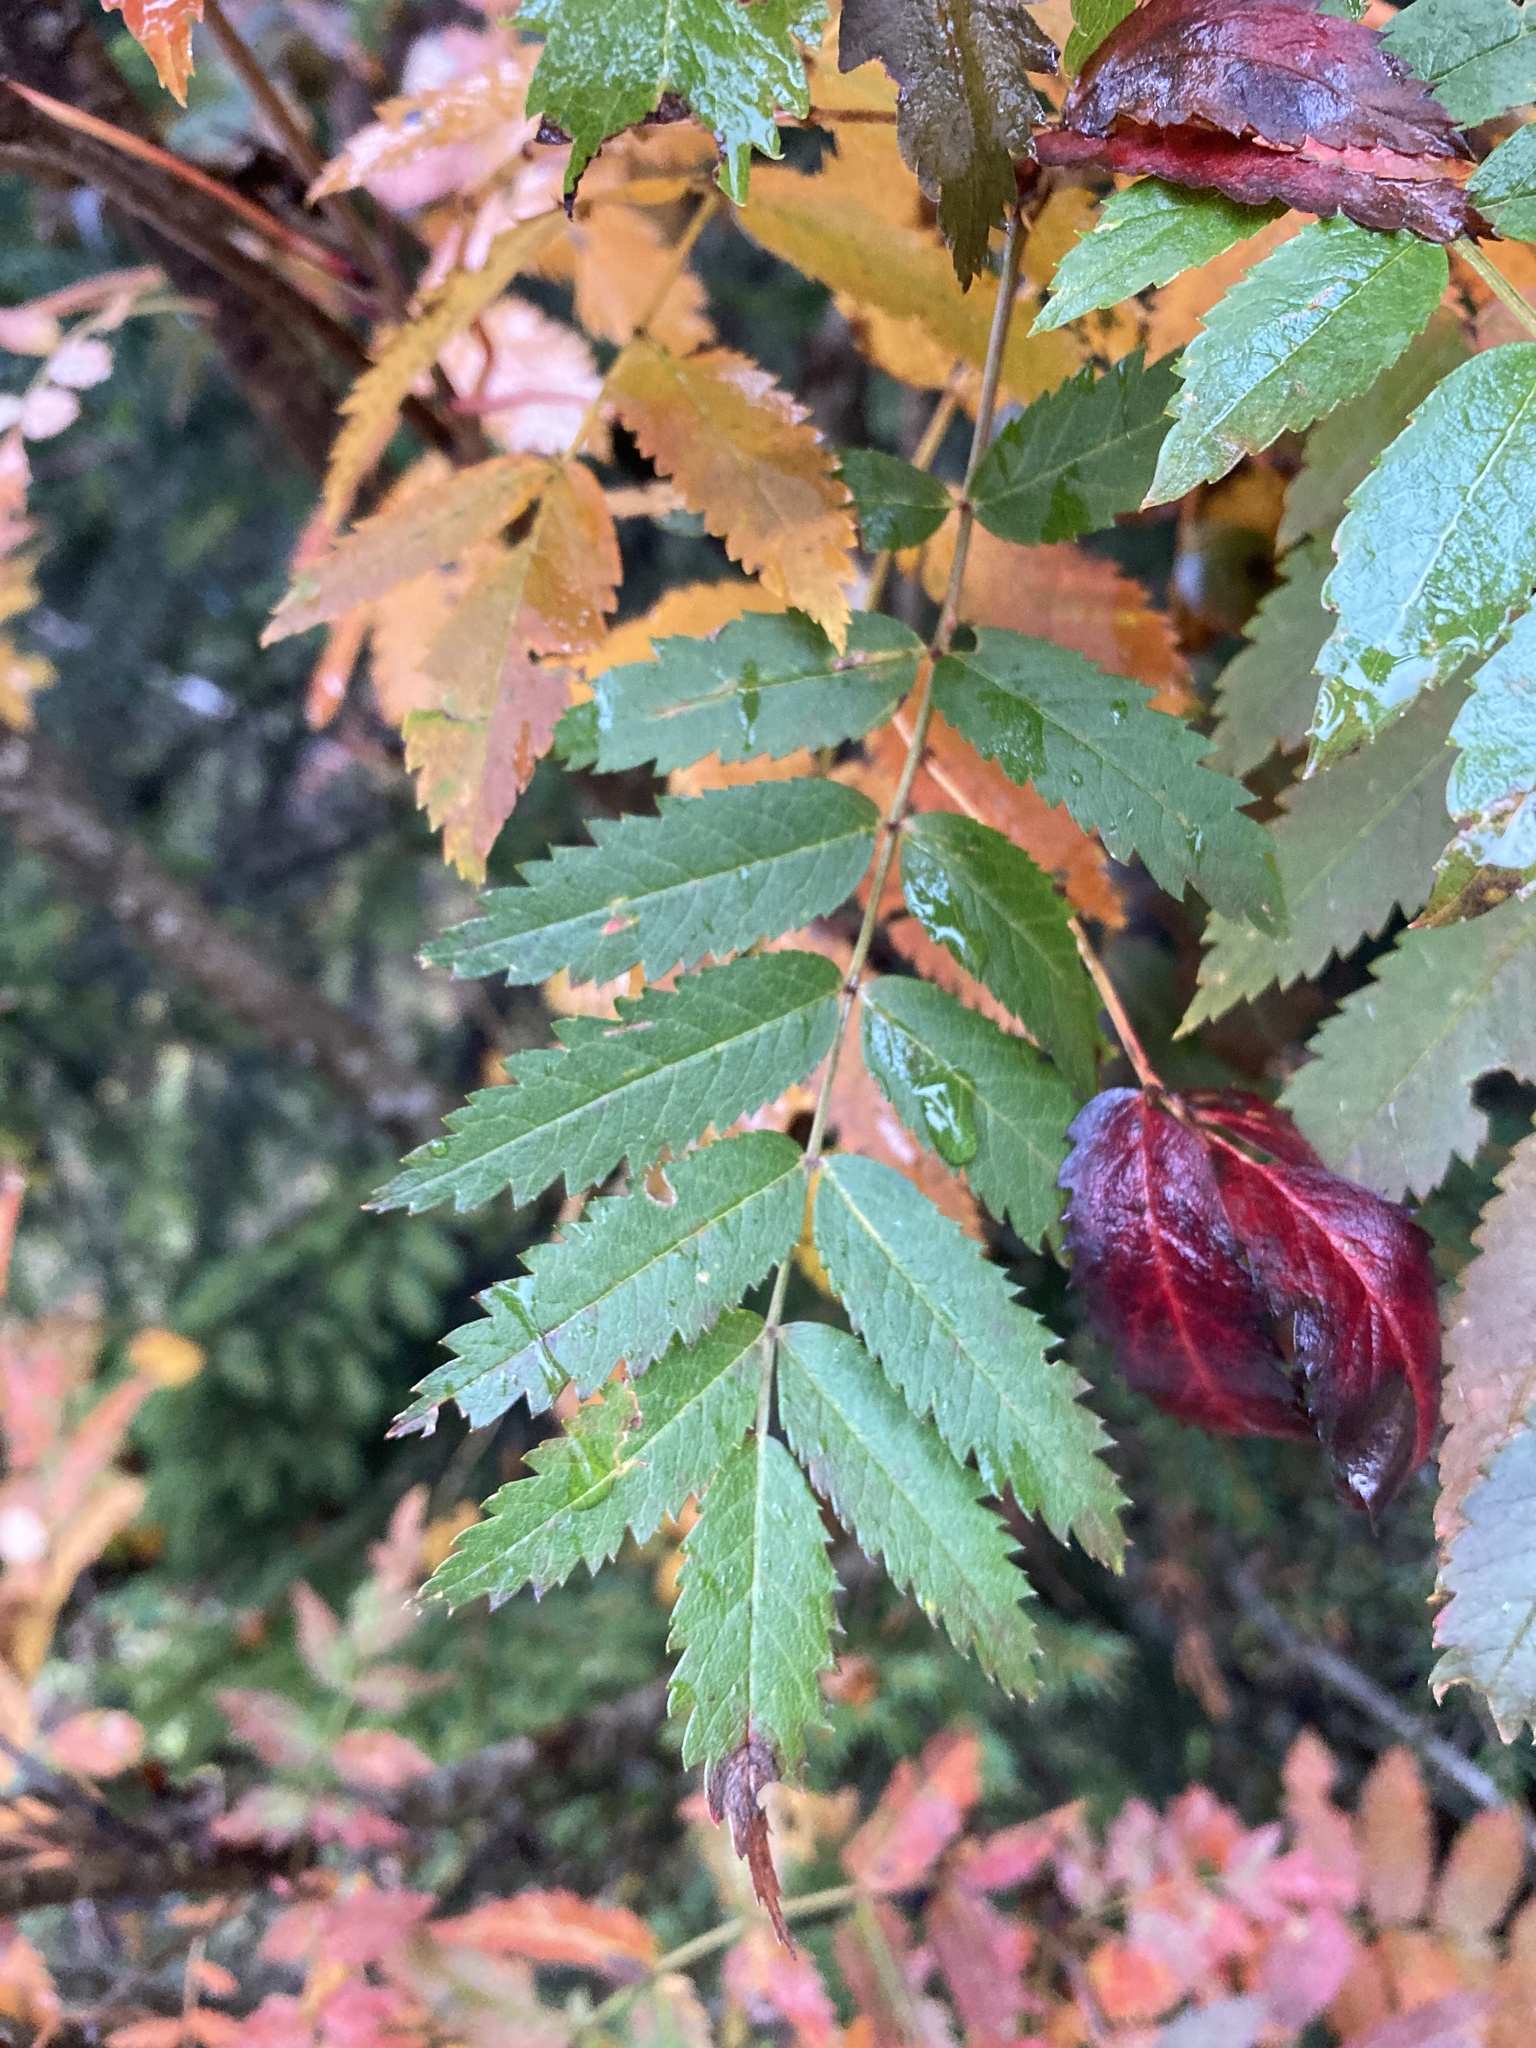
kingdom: Plantae
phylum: Tracheophyta
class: Magnoliopsida
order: Rosales
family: Rosaceae
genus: Sorbus
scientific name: Sorbus aucuparia
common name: Rowan
